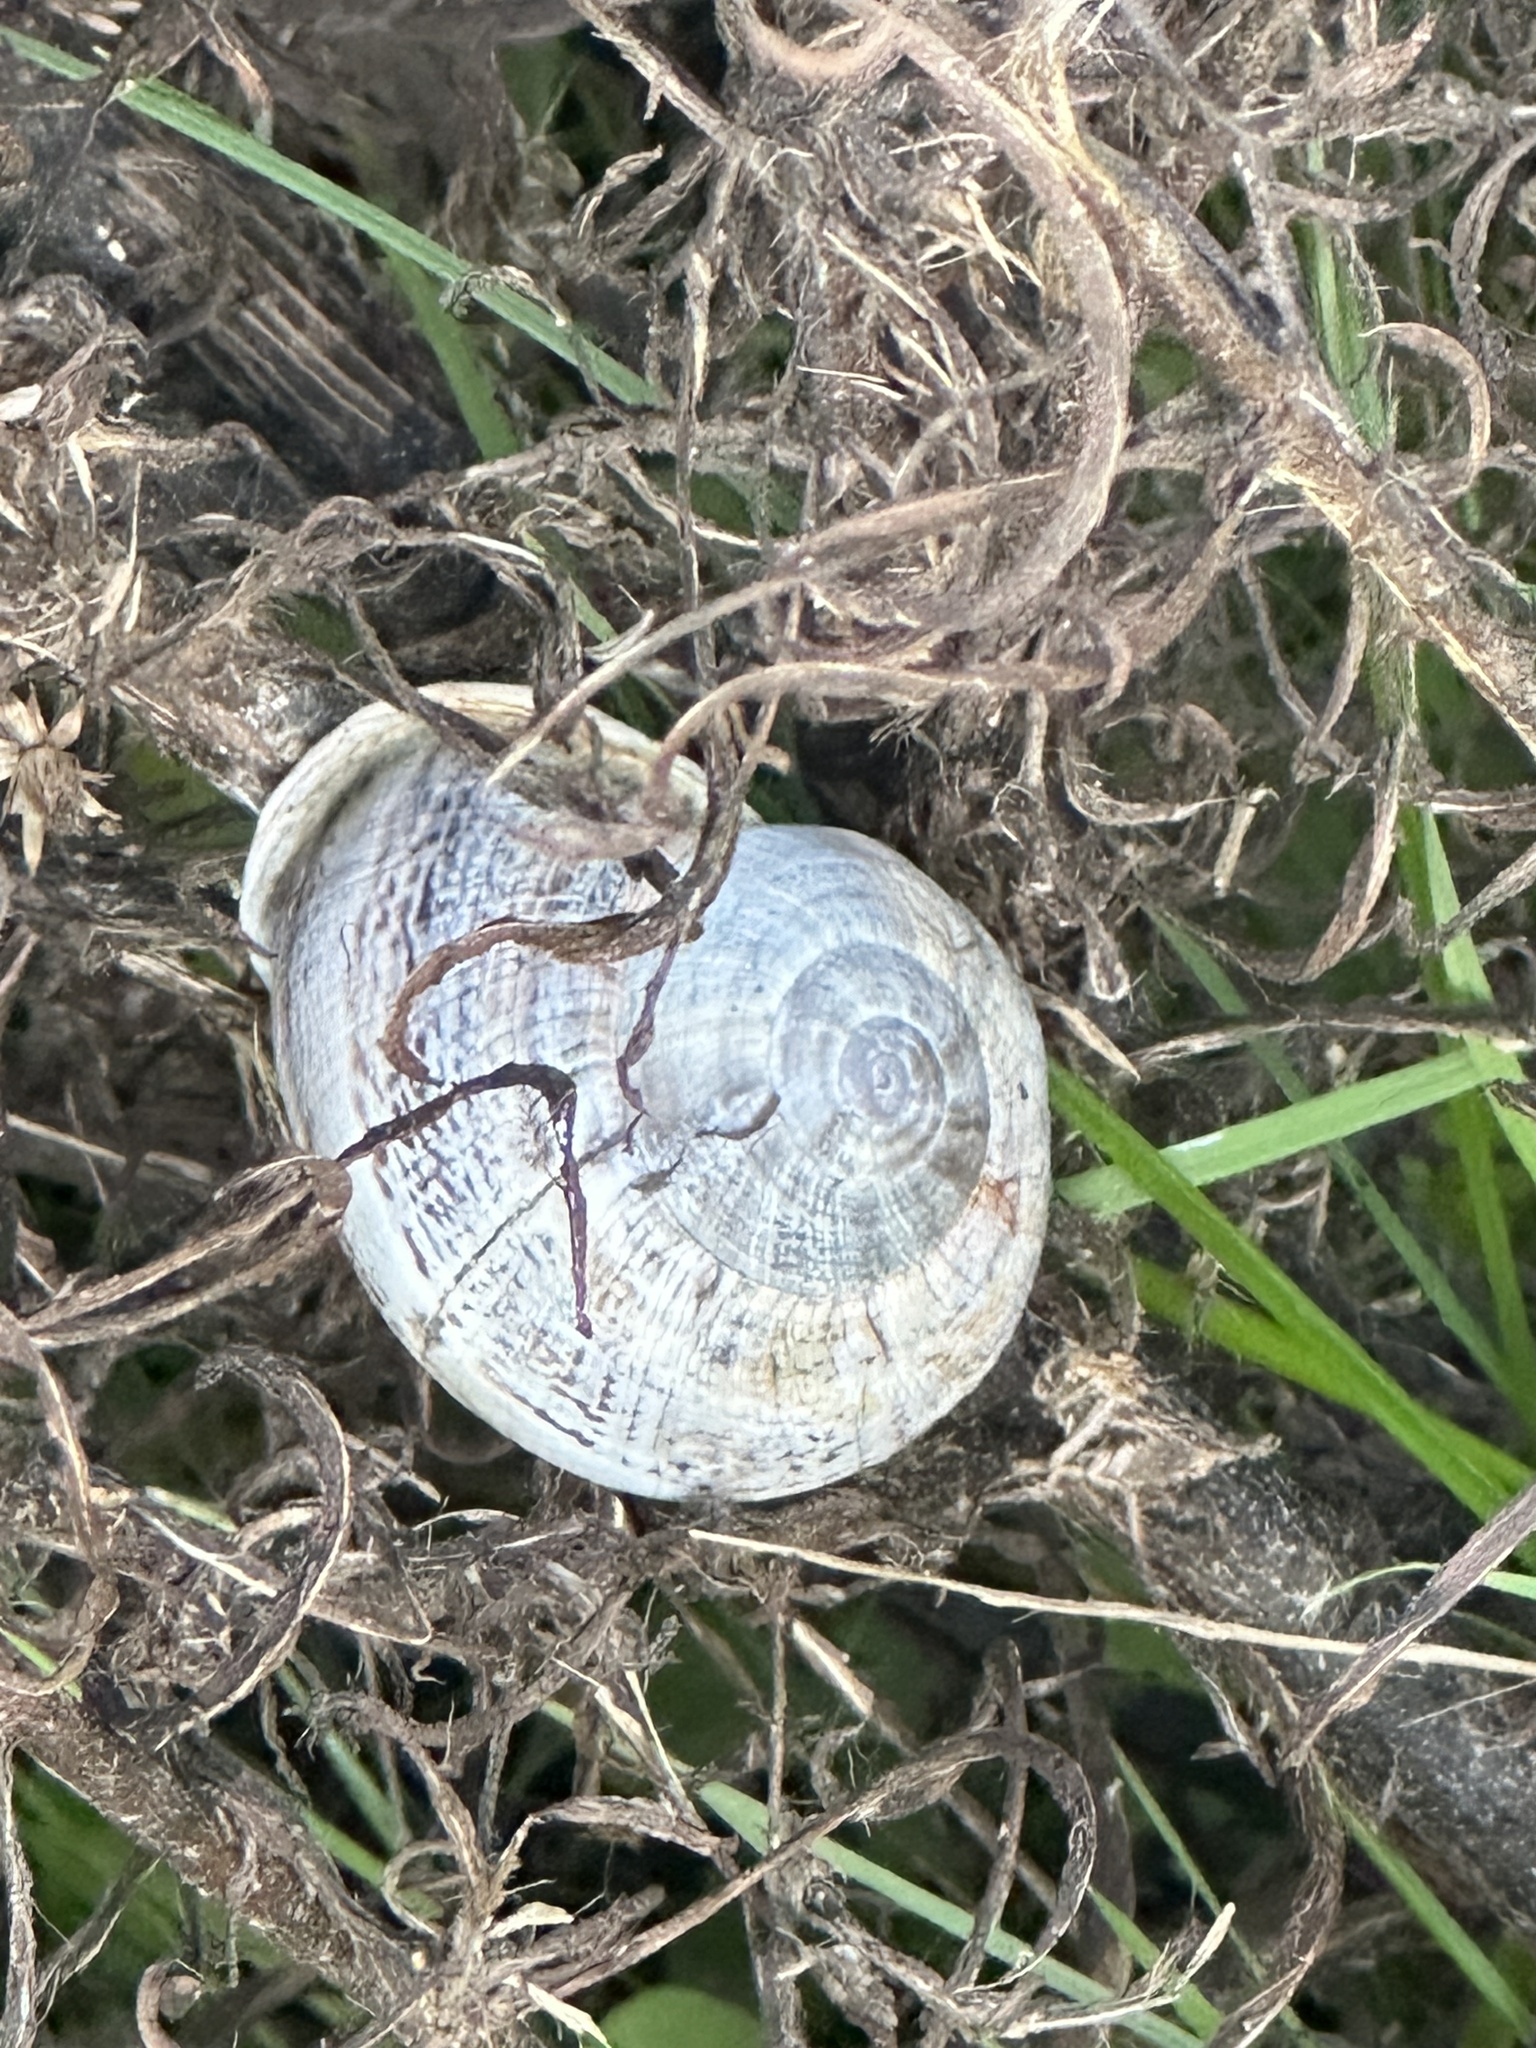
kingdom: Animalia
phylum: Mollusca
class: Gastropoda
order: Stylommatophora
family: Helicidae
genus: Otala
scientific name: Otala lactea
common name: Milk snail
